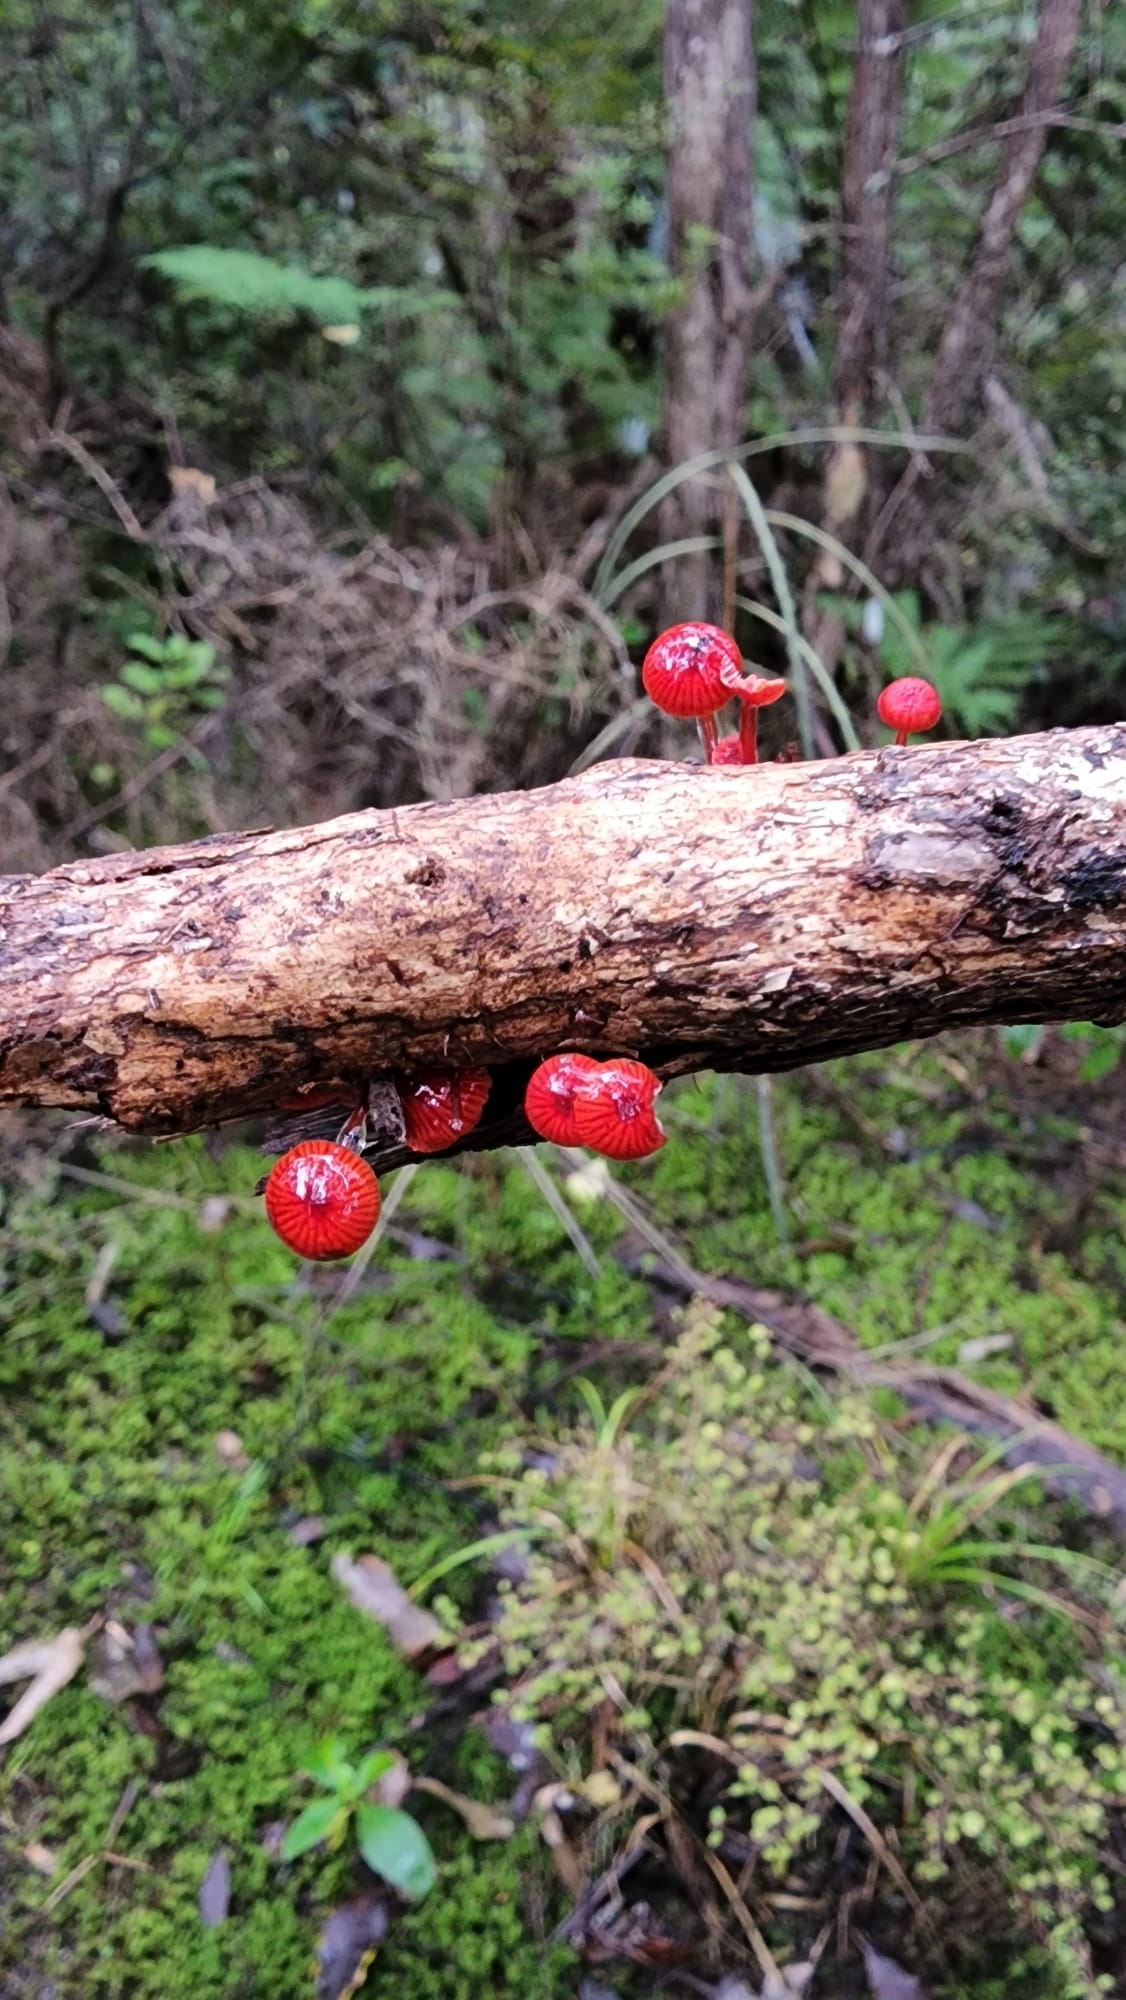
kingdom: Fungi
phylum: Basidiomycota
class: Agaricomycetes
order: Agaricales
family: Mycenaceae
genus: Cruentomycena
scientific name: Cruentomycena viscidocruenta
